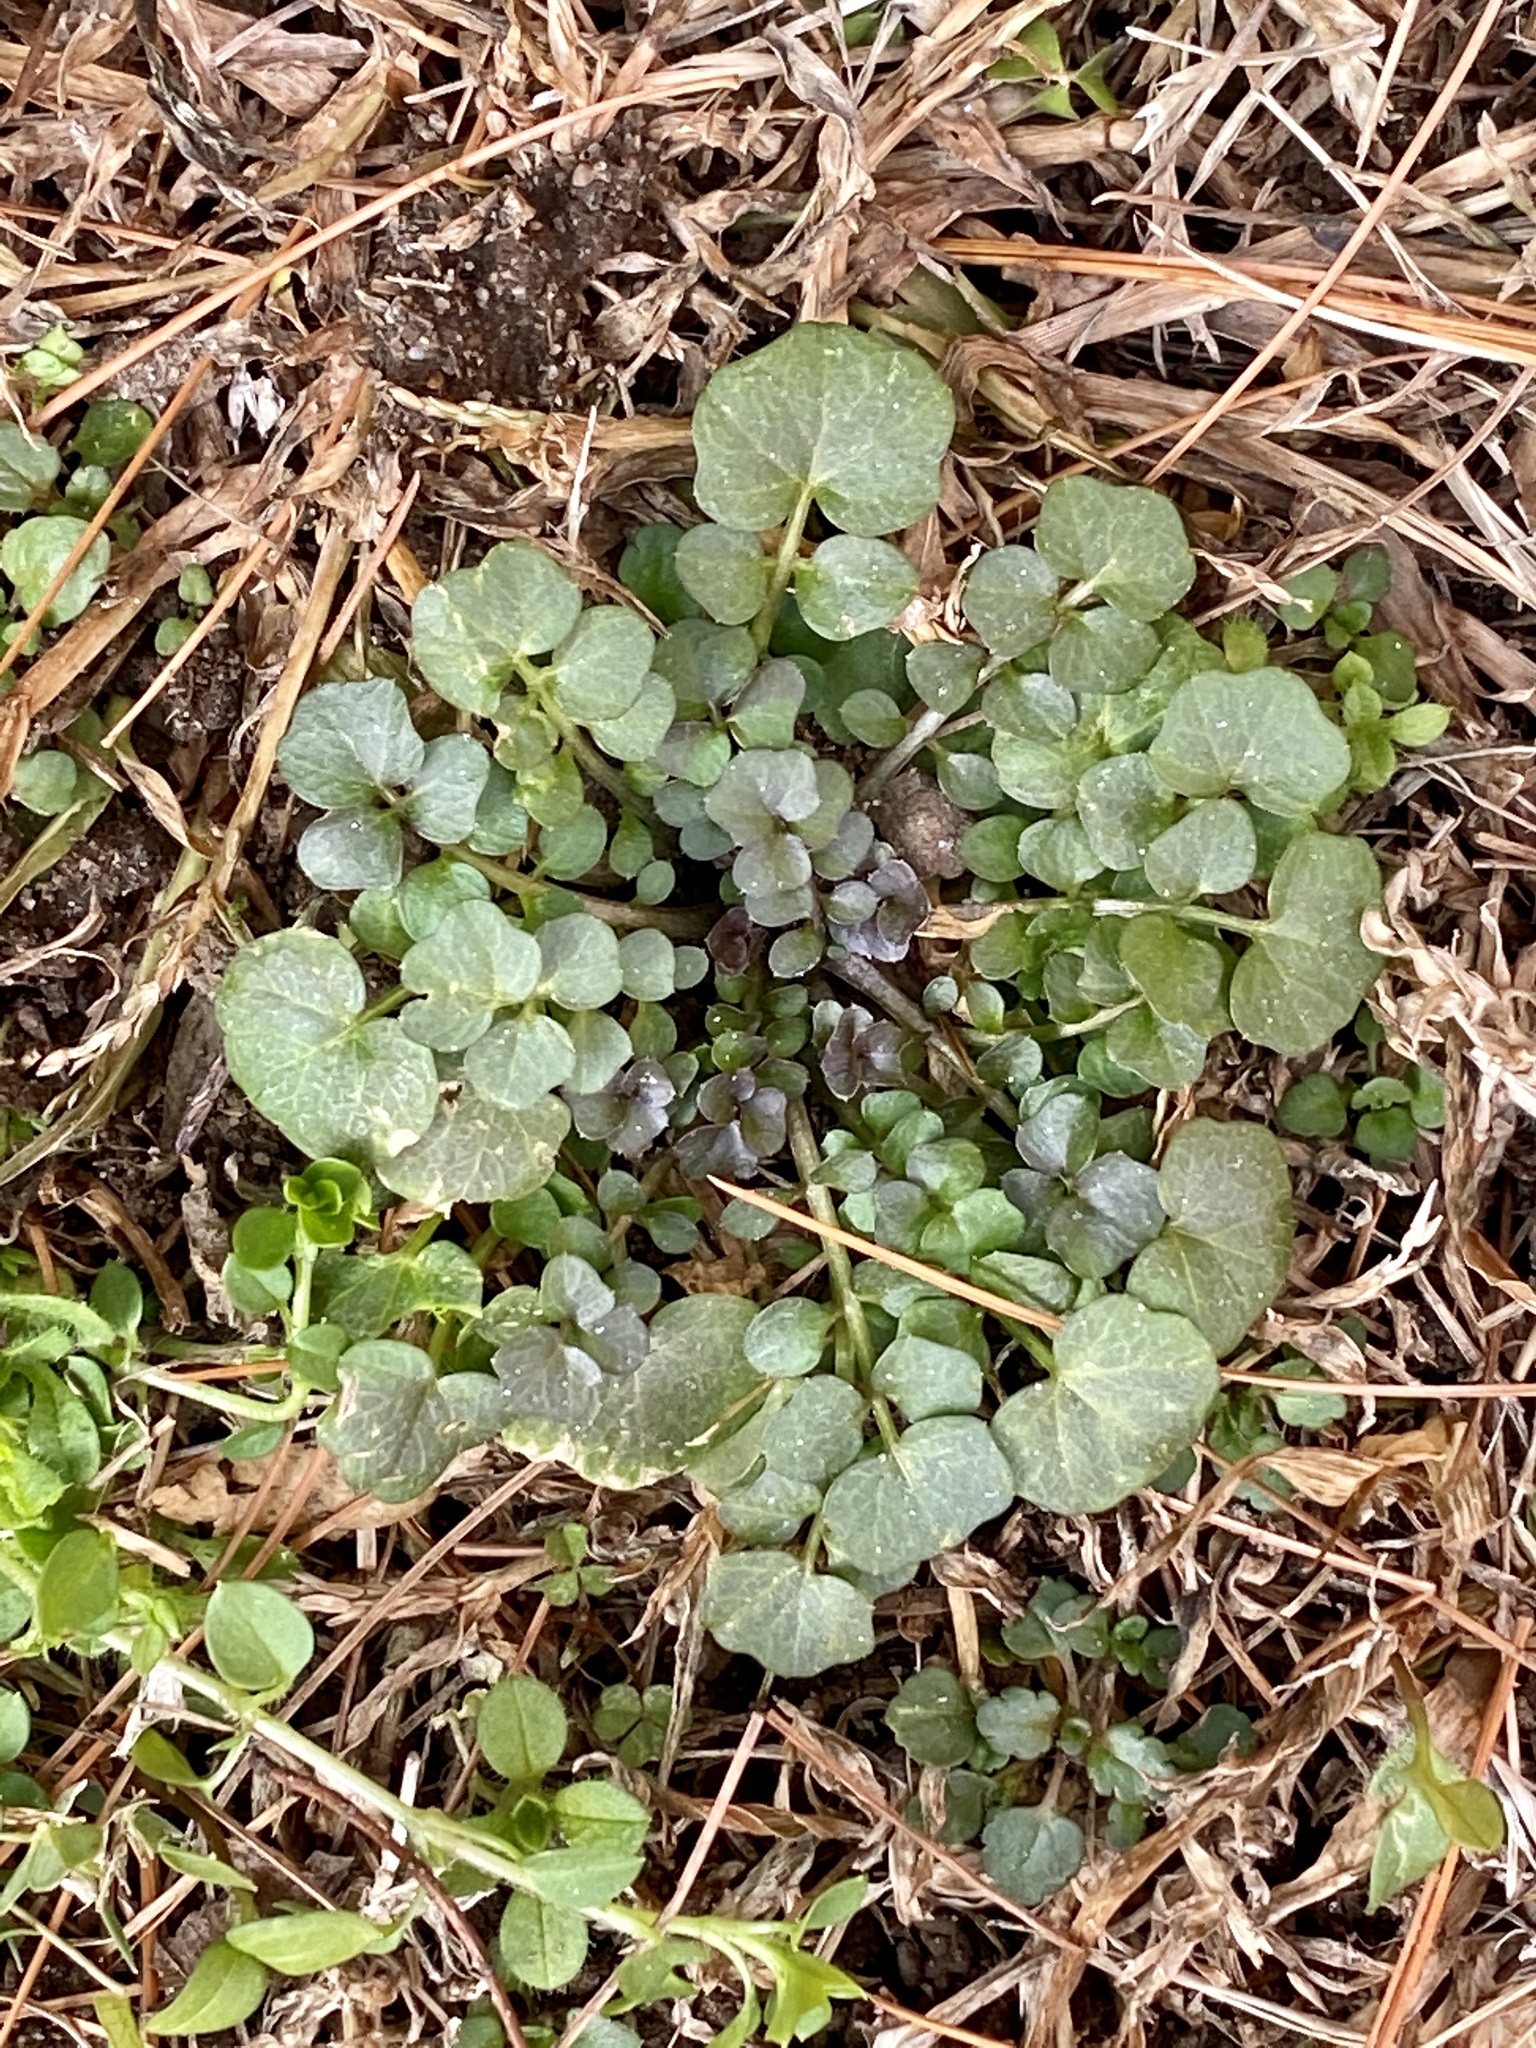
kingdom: Plantae
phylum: Tracheophyta
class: Magnoliopsida
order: Brassicales
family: Brassicaceae
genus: Cardamine
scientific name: Cardamine hirsuta
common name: Hairy bittercress
